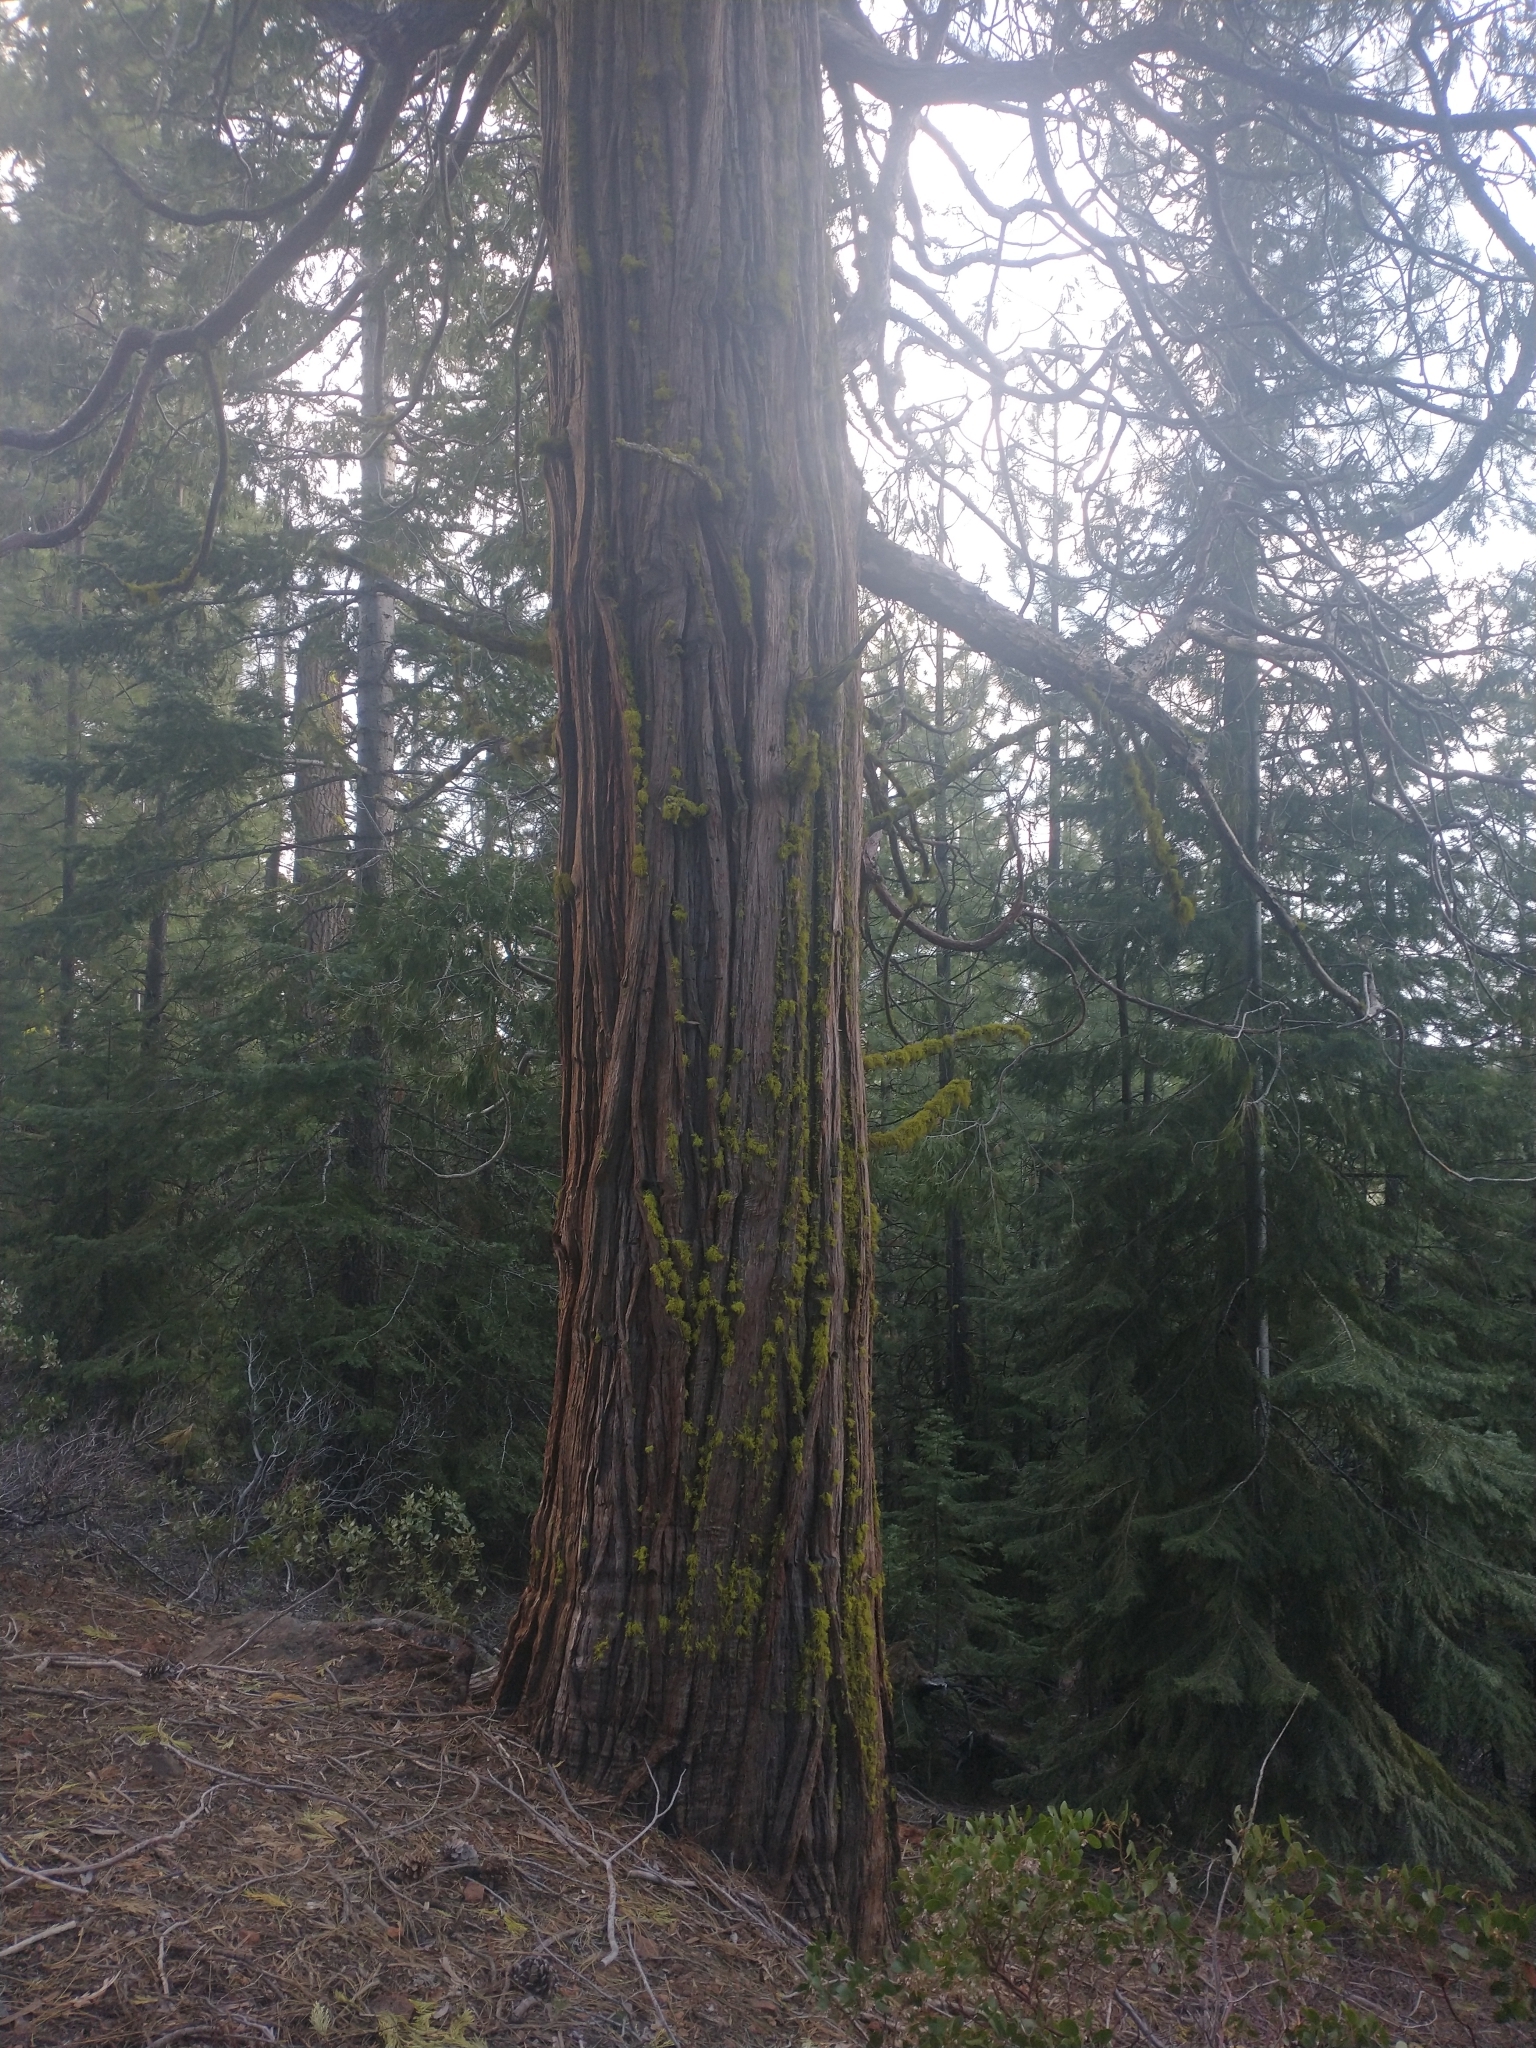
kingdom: Plantae
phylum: Tracheophyta
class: Pinopsida
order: Pinales
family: Cupressaceae
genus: Calocedrus
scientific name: Calocedrus decurrens
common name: Californian incense-cedar
